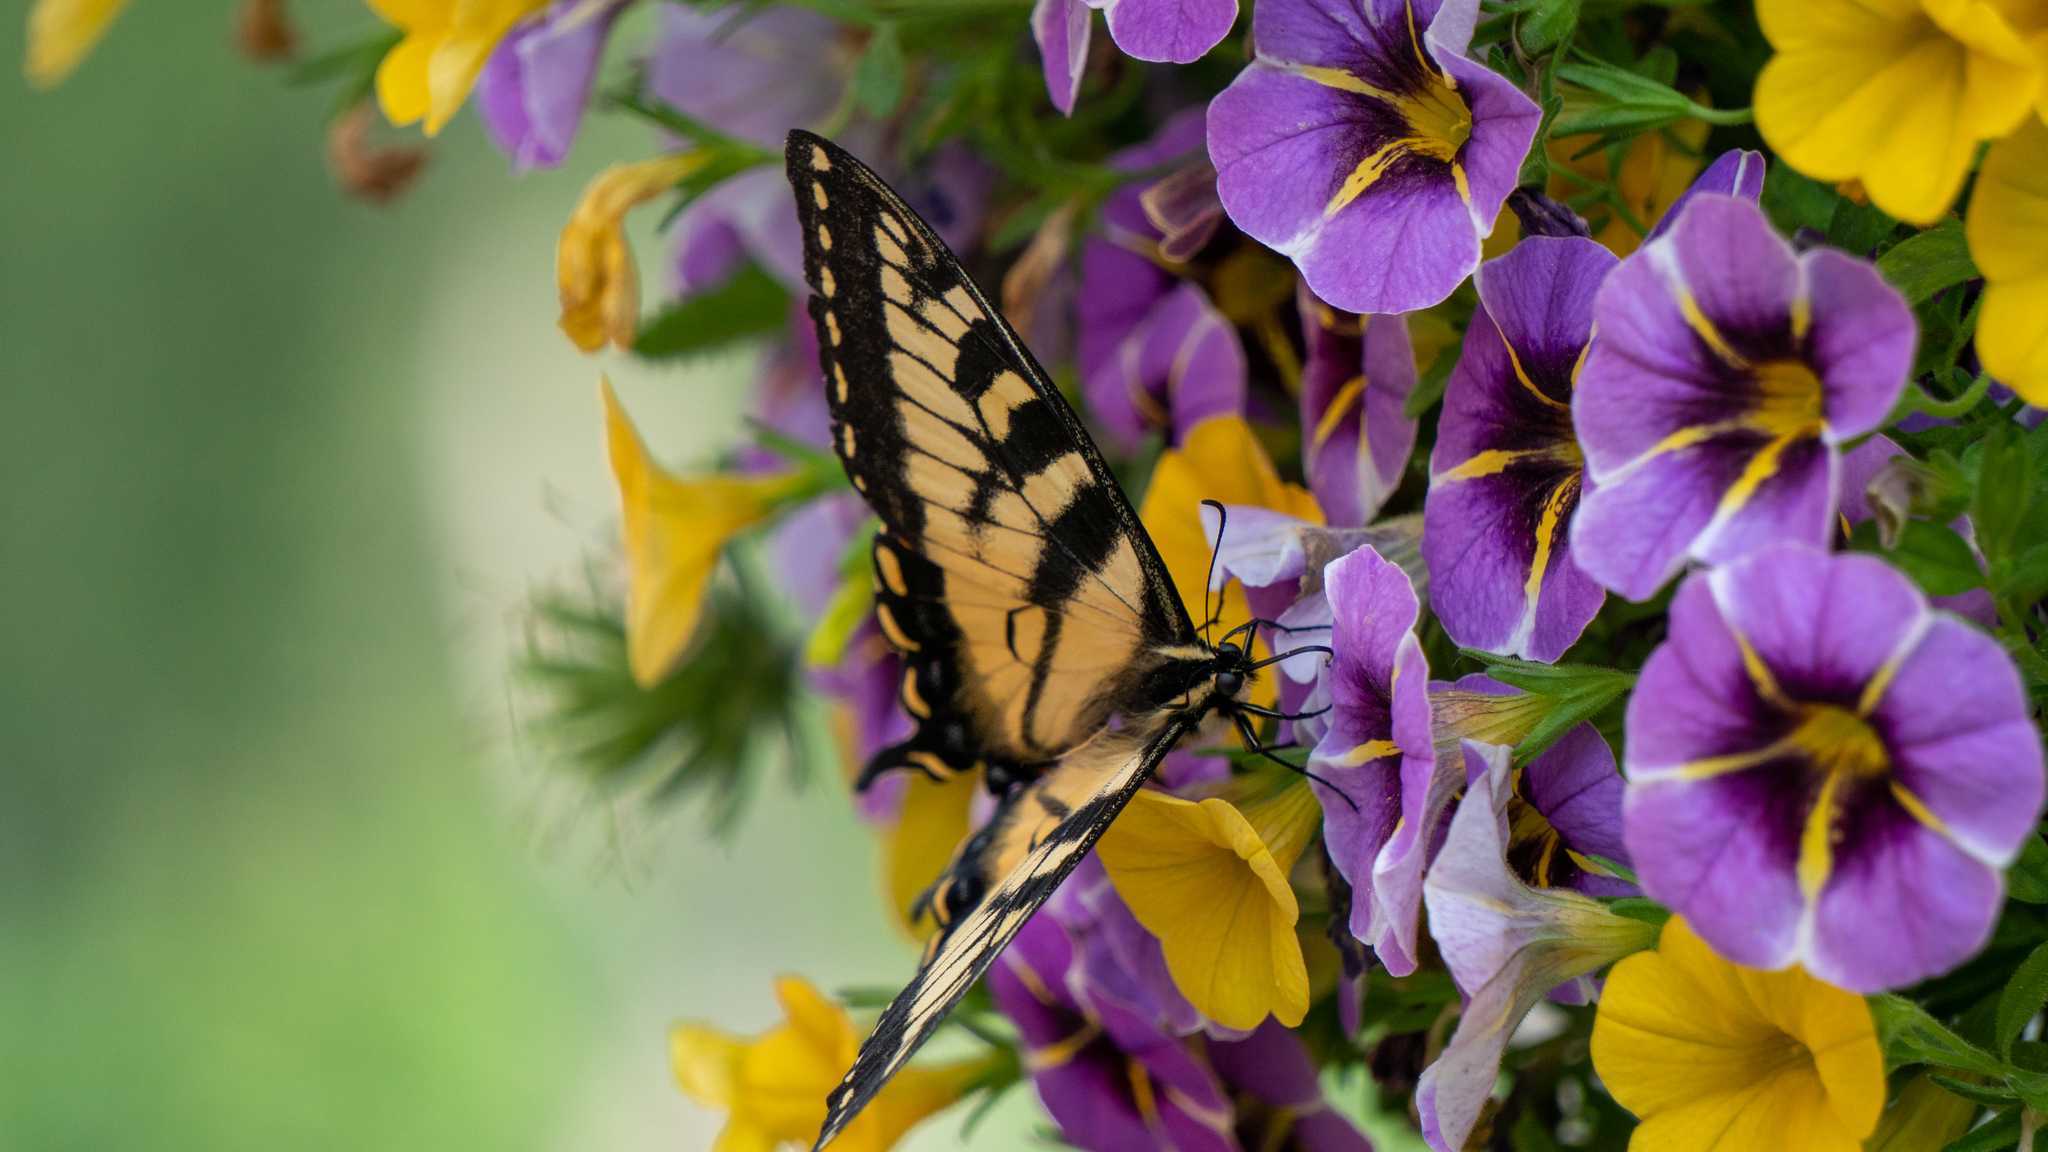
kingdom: Animalia
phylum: Arthropoda
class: Insecta
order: Lepidoptera
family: Papilionidae
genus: Papilio
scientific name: Papilio canadensis
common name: Canadian tiger swallowtail
